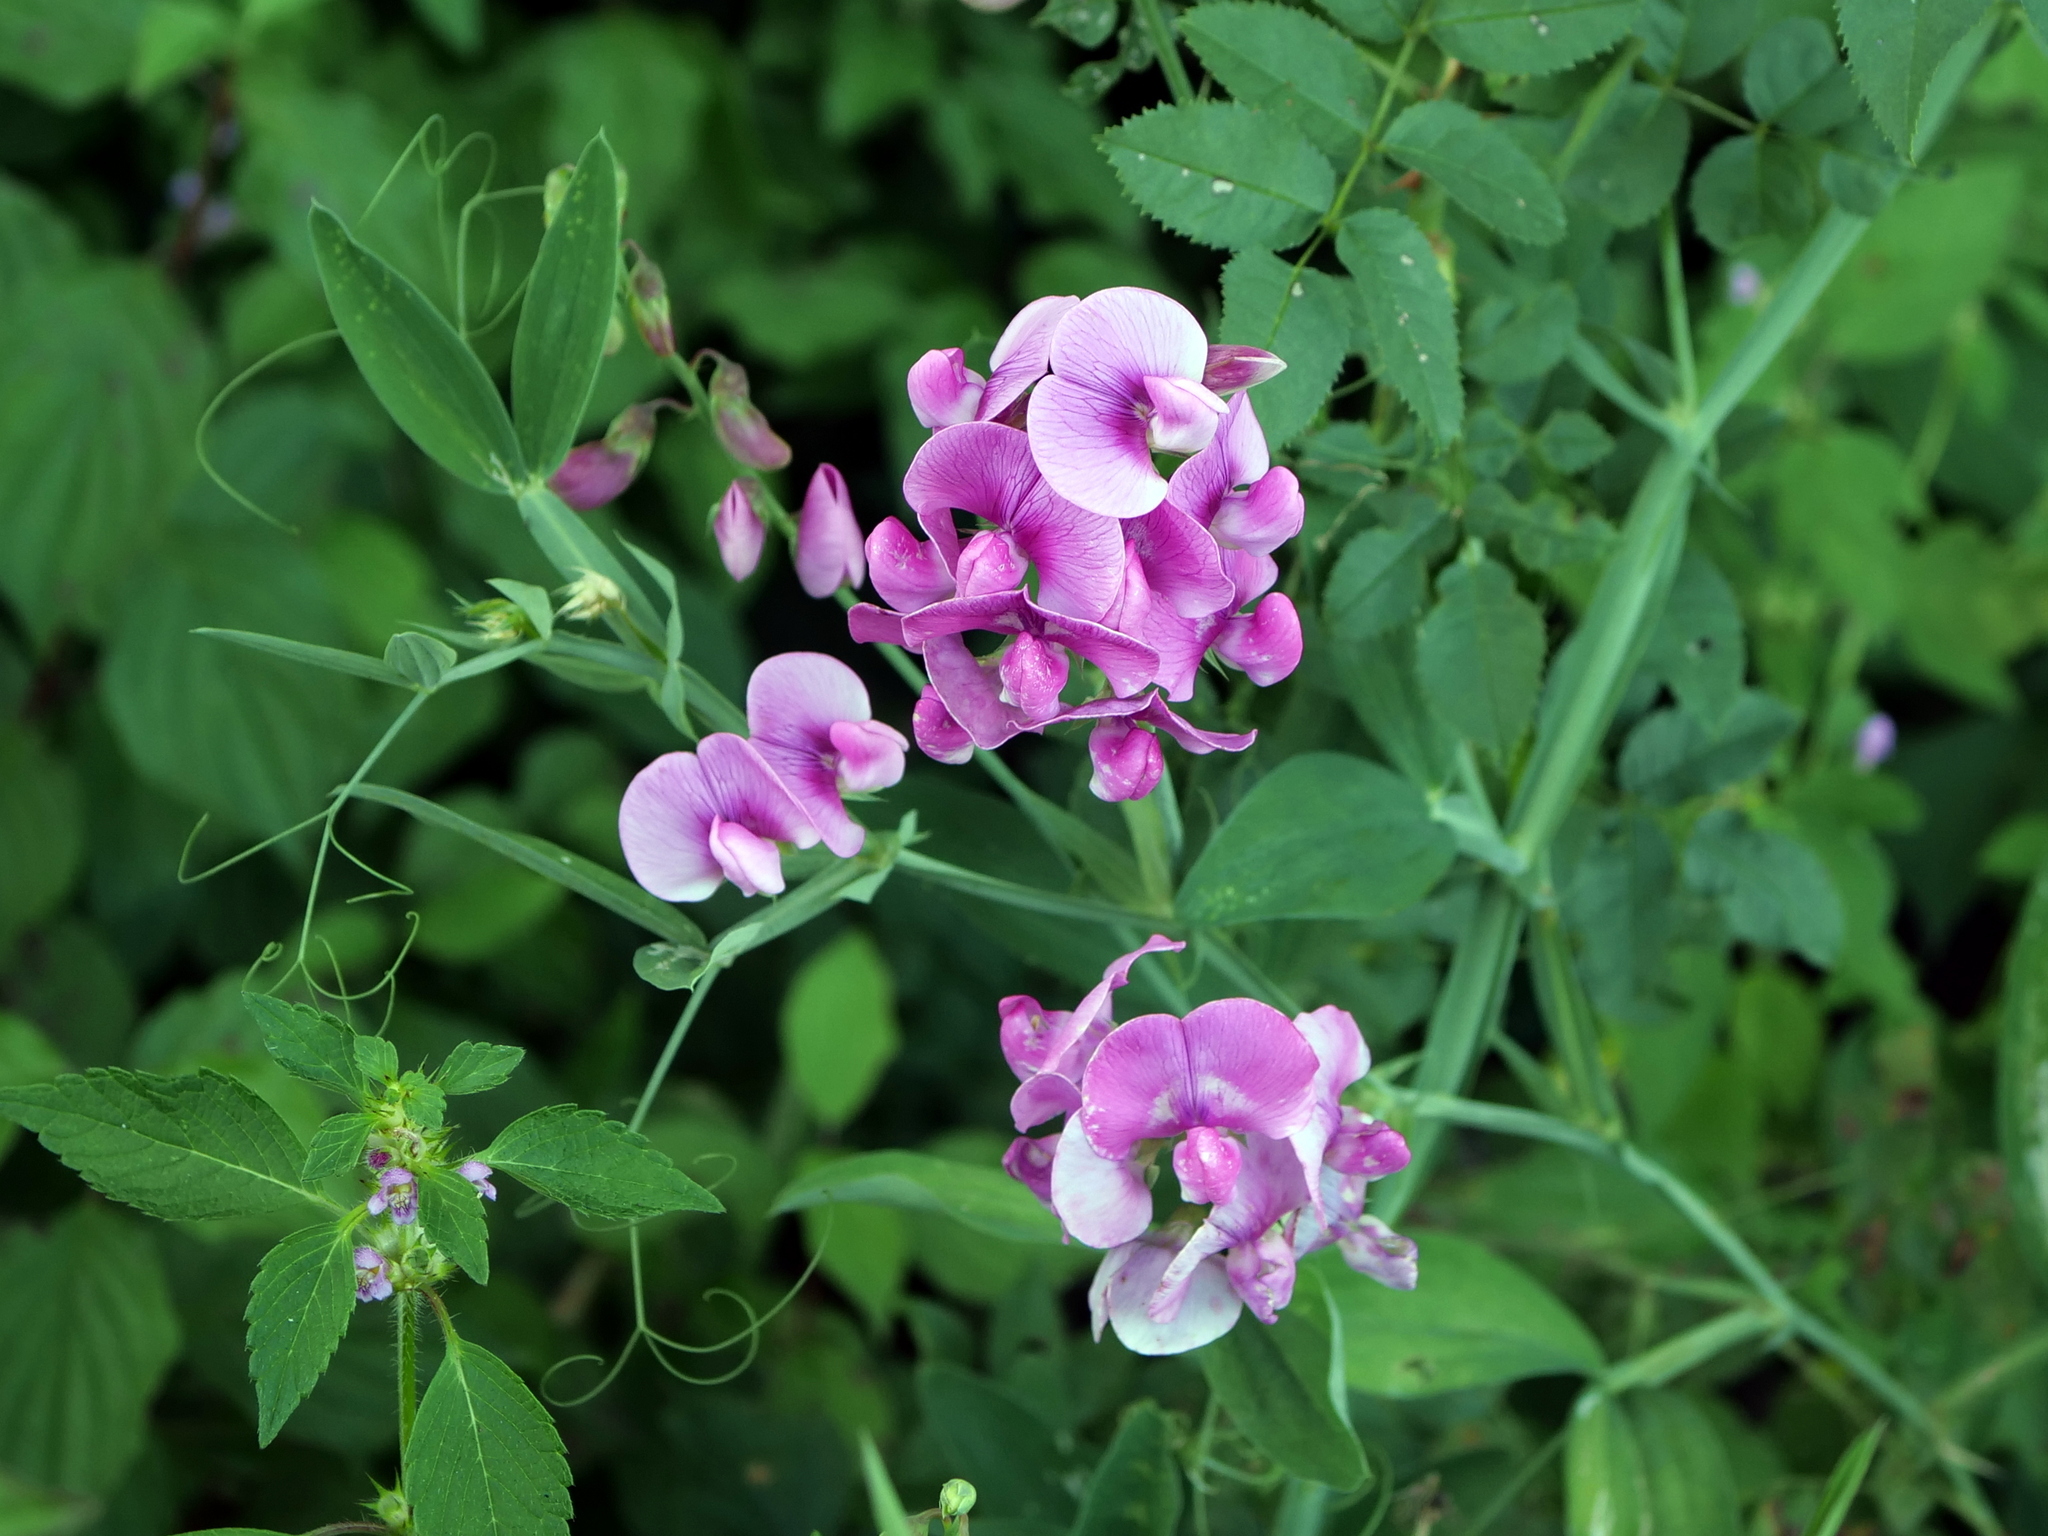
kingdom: Plantae
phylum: Tracheophyta
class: Magnoliopsida
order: Fabales
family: Fabaceae
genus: Lathyrus
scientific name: Lathyrus latifolius
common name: Perennial pea
